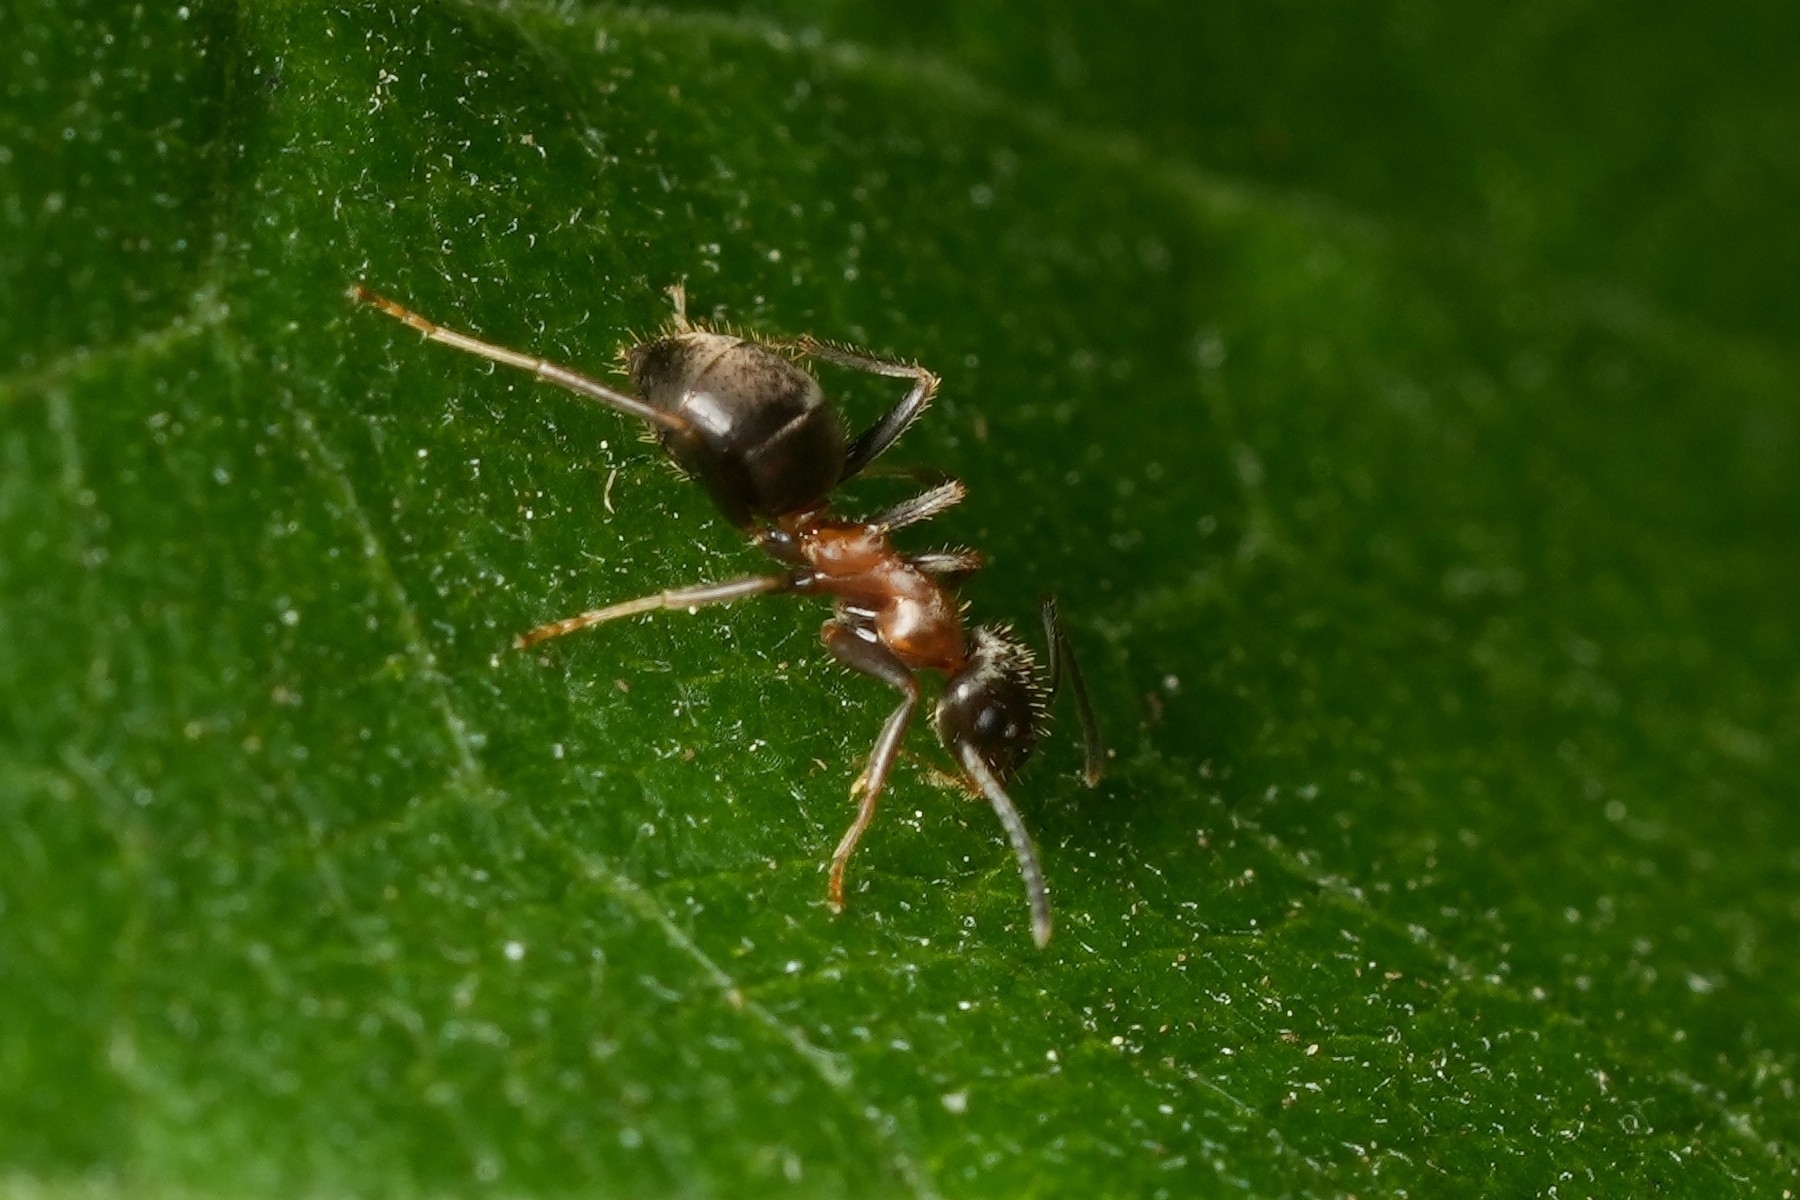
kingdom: Animalia
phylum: Arthropoda
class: Insecta
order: Hymenoptera
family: Formicidae
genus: Lasius
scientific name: Lasius emarginatus
